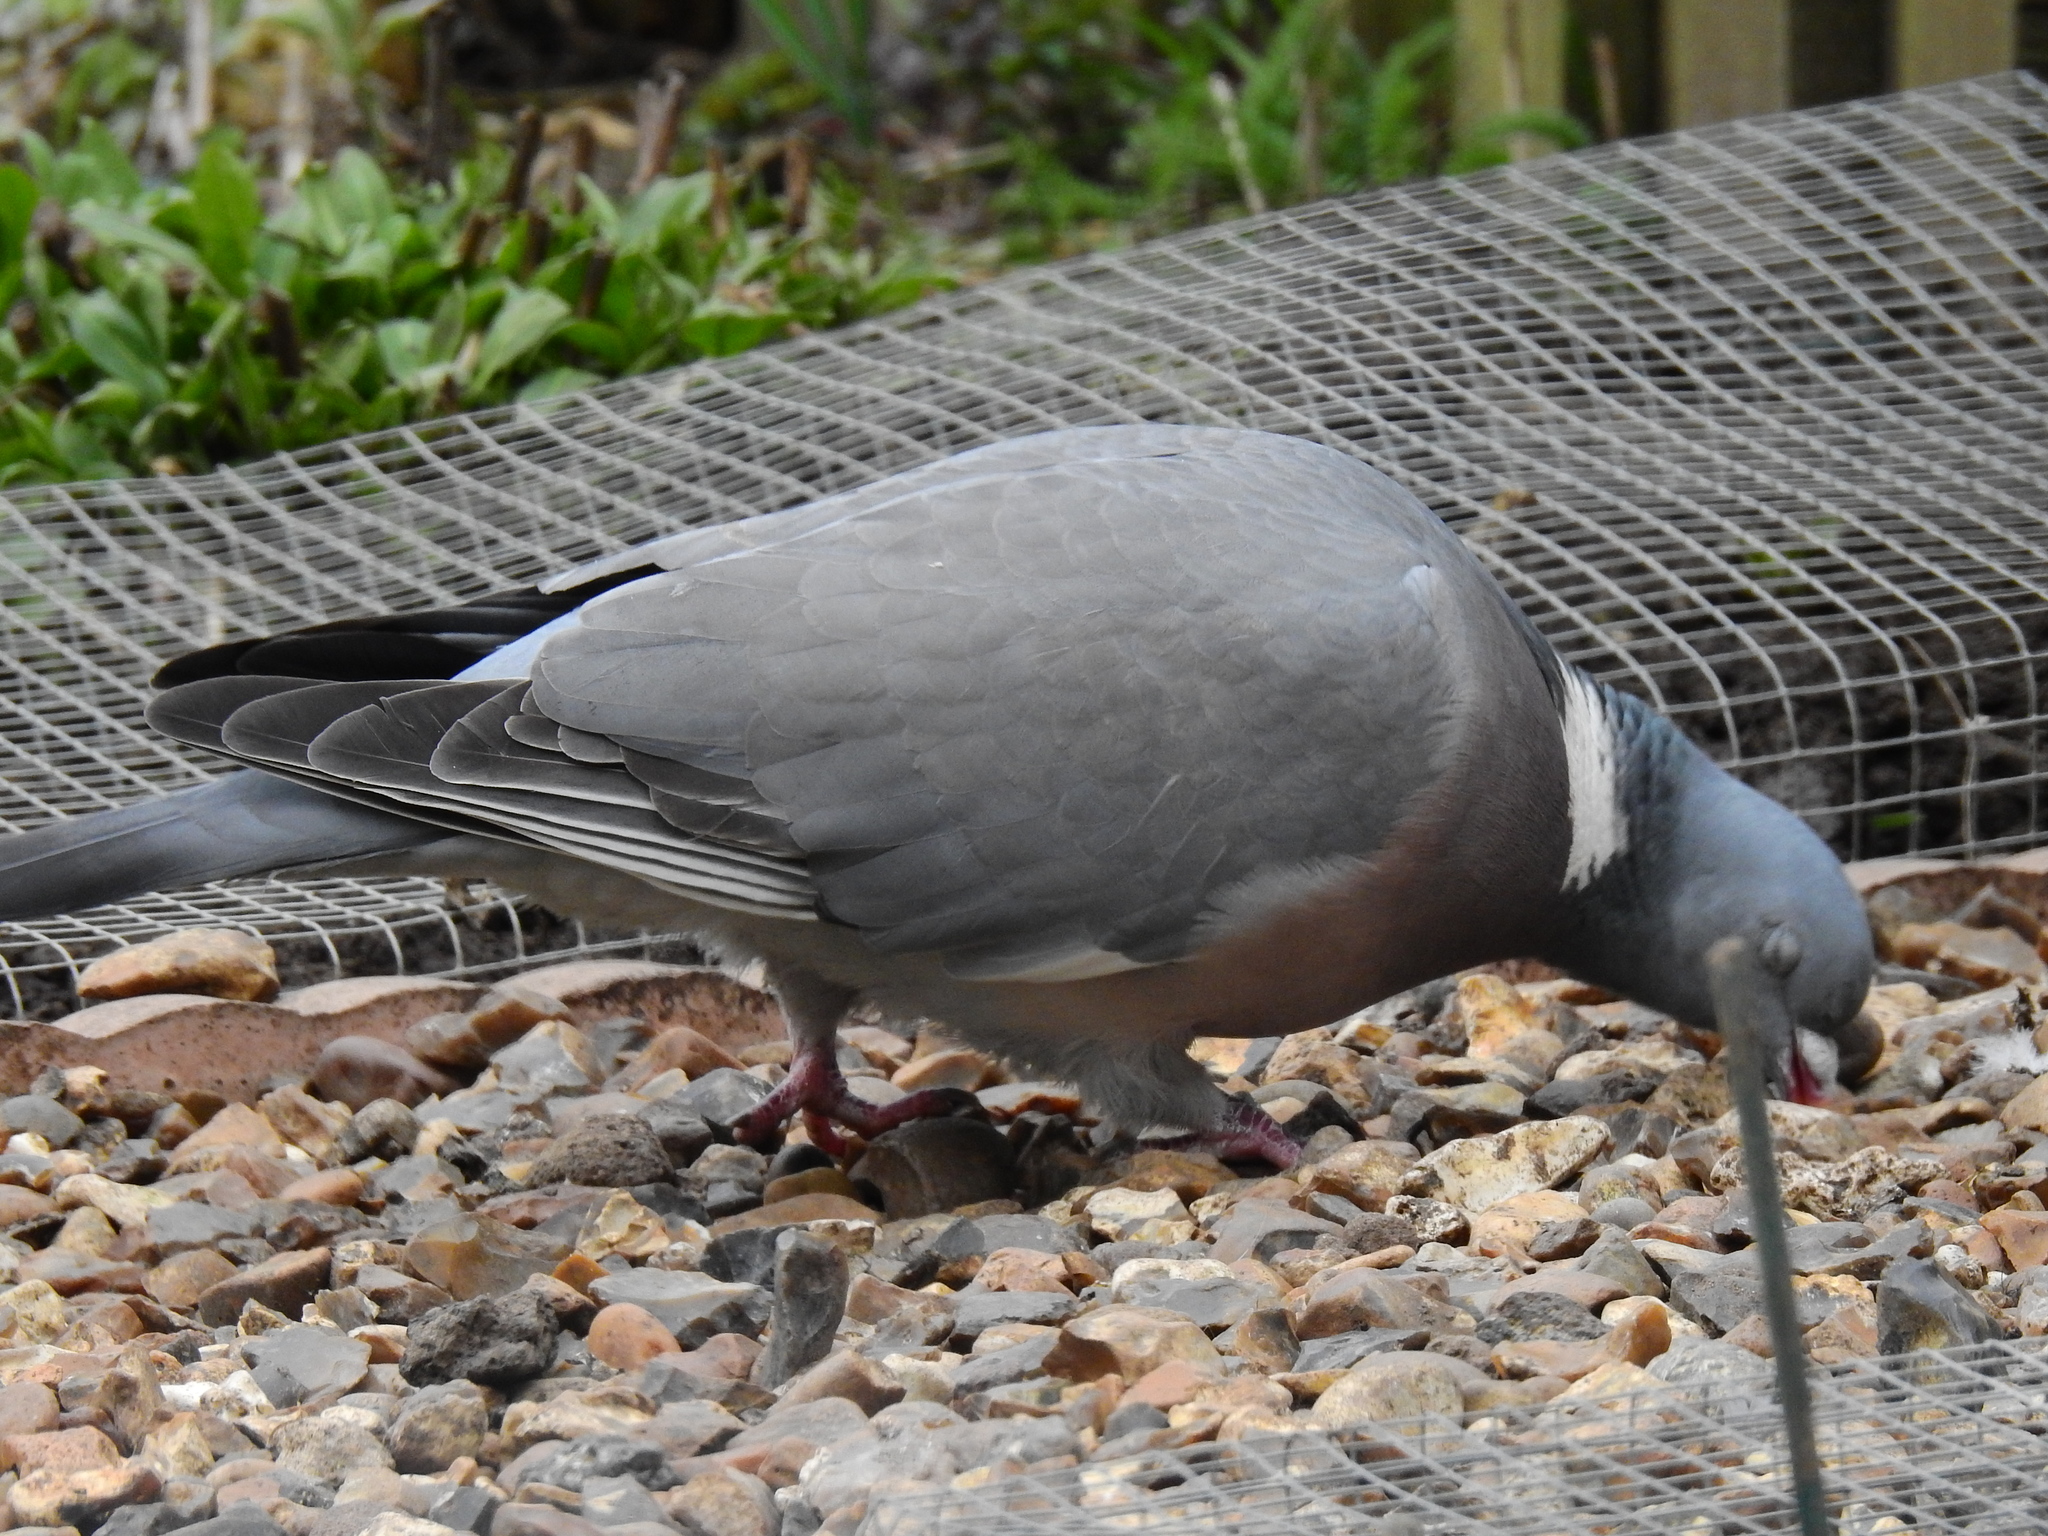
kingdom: Animalia
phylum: Chordata
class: Aves
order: Columbiformes
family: Columbidae
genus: Columba
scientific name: Columba palumbus
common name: Common wood pigeon
